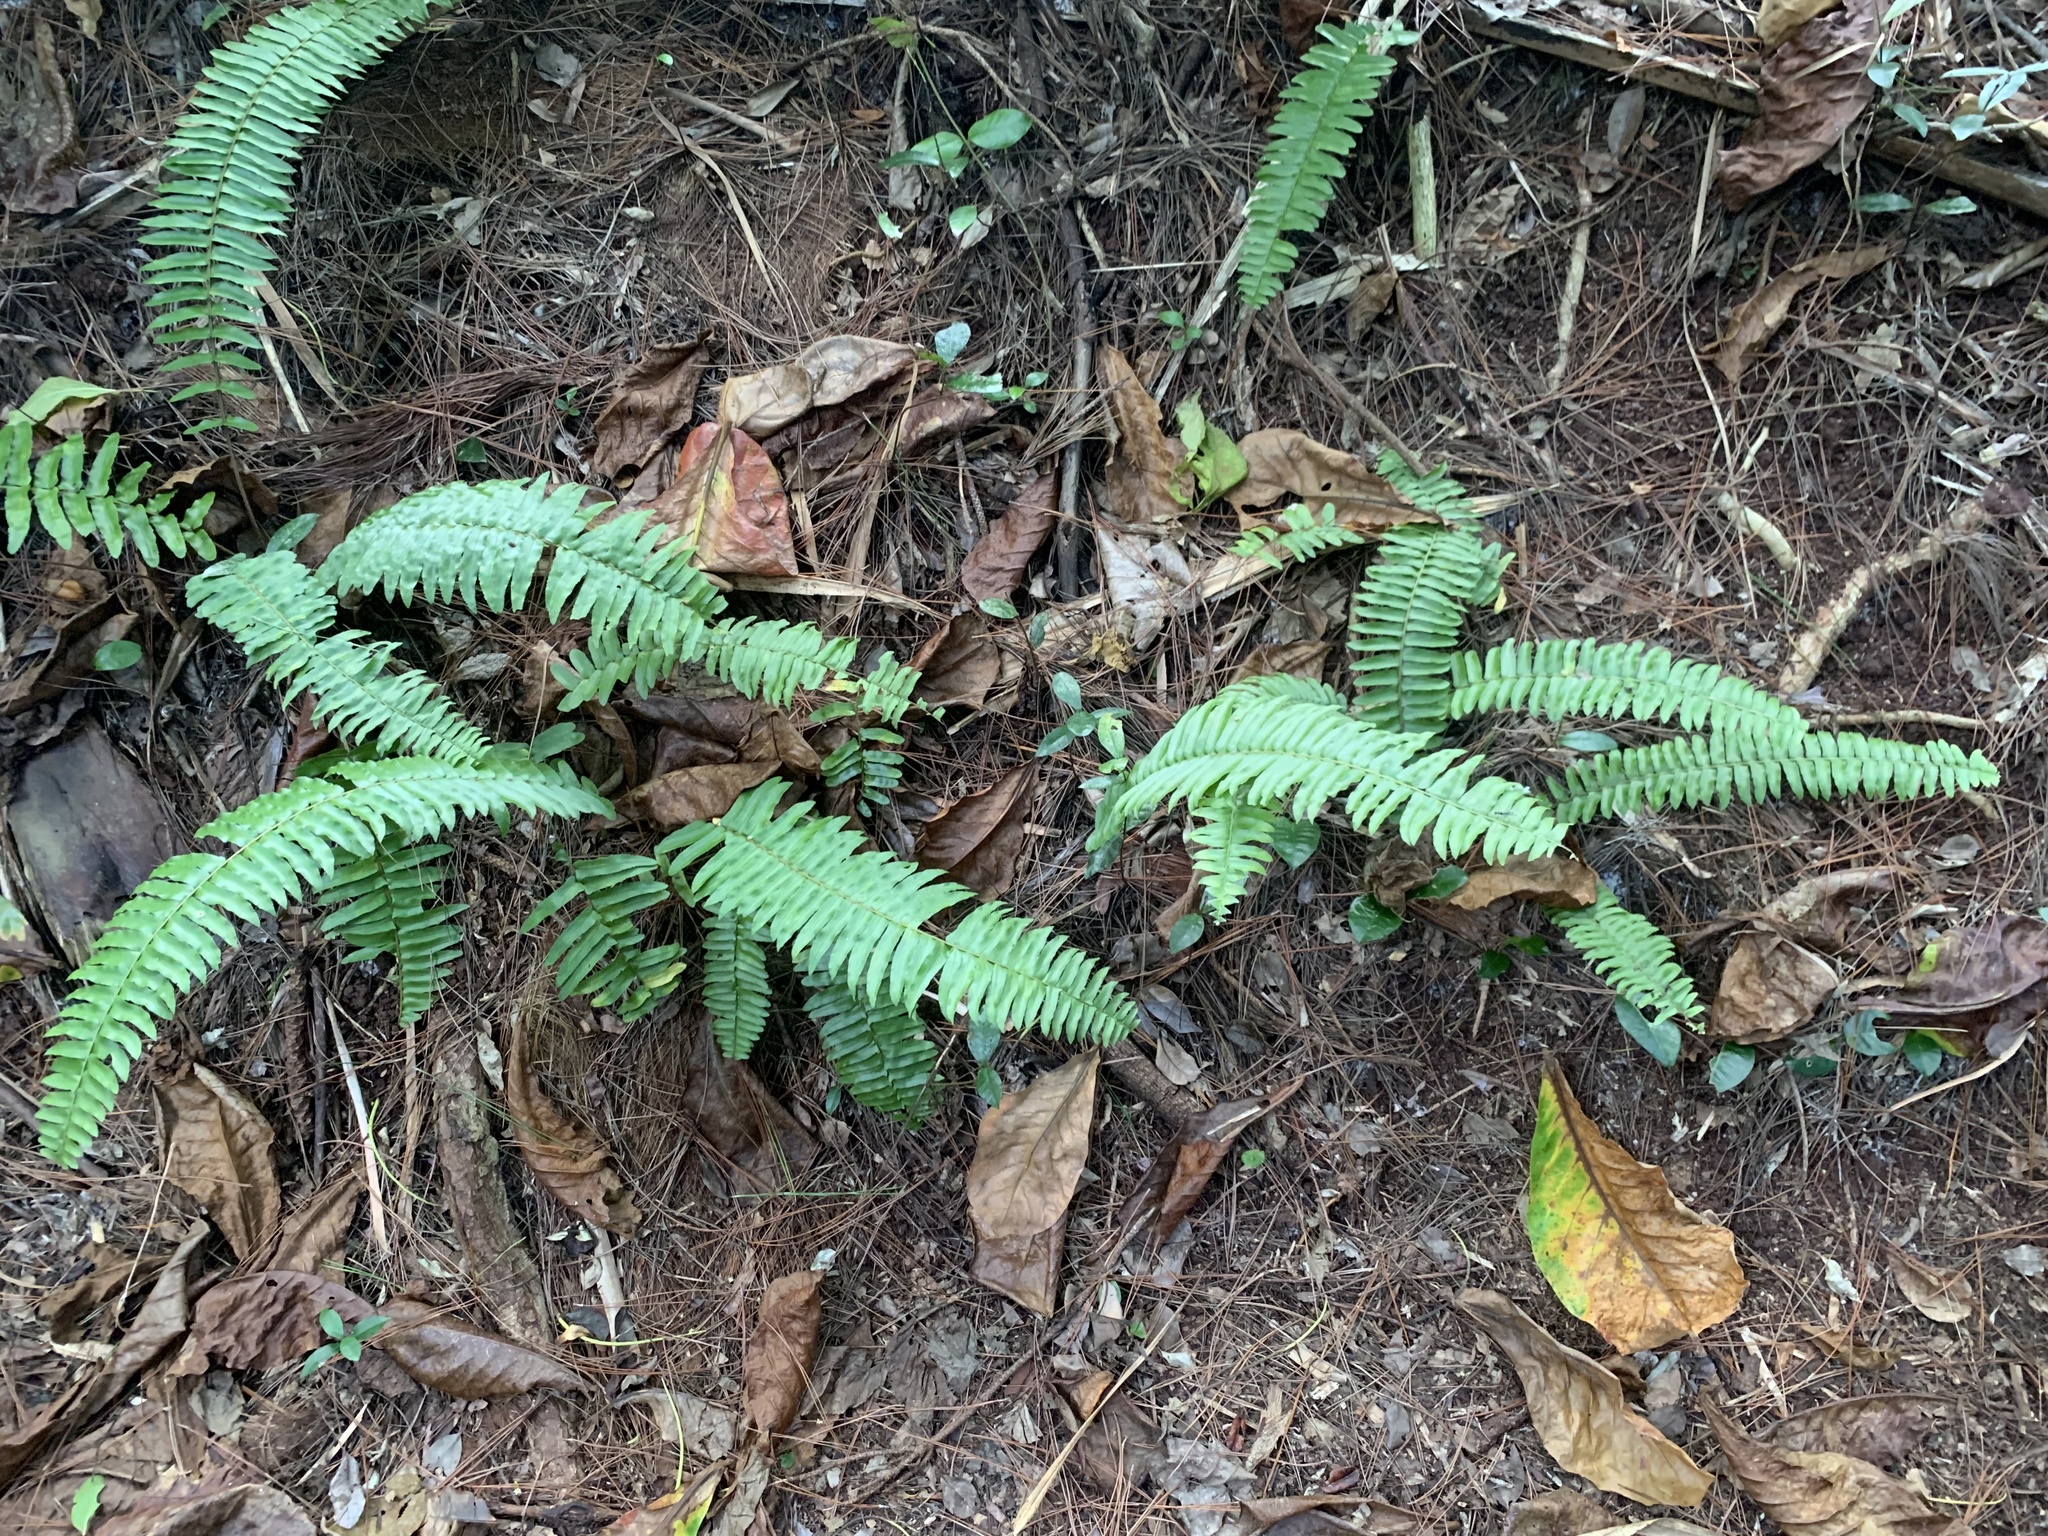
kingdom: Plantae
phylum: Tracheophyta
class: Polypodiopsida
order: Polypodiales
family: Nephrolepidaceae
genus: Nephrolepis
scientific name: Nephrolepis brownii
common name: Asian swordfern
